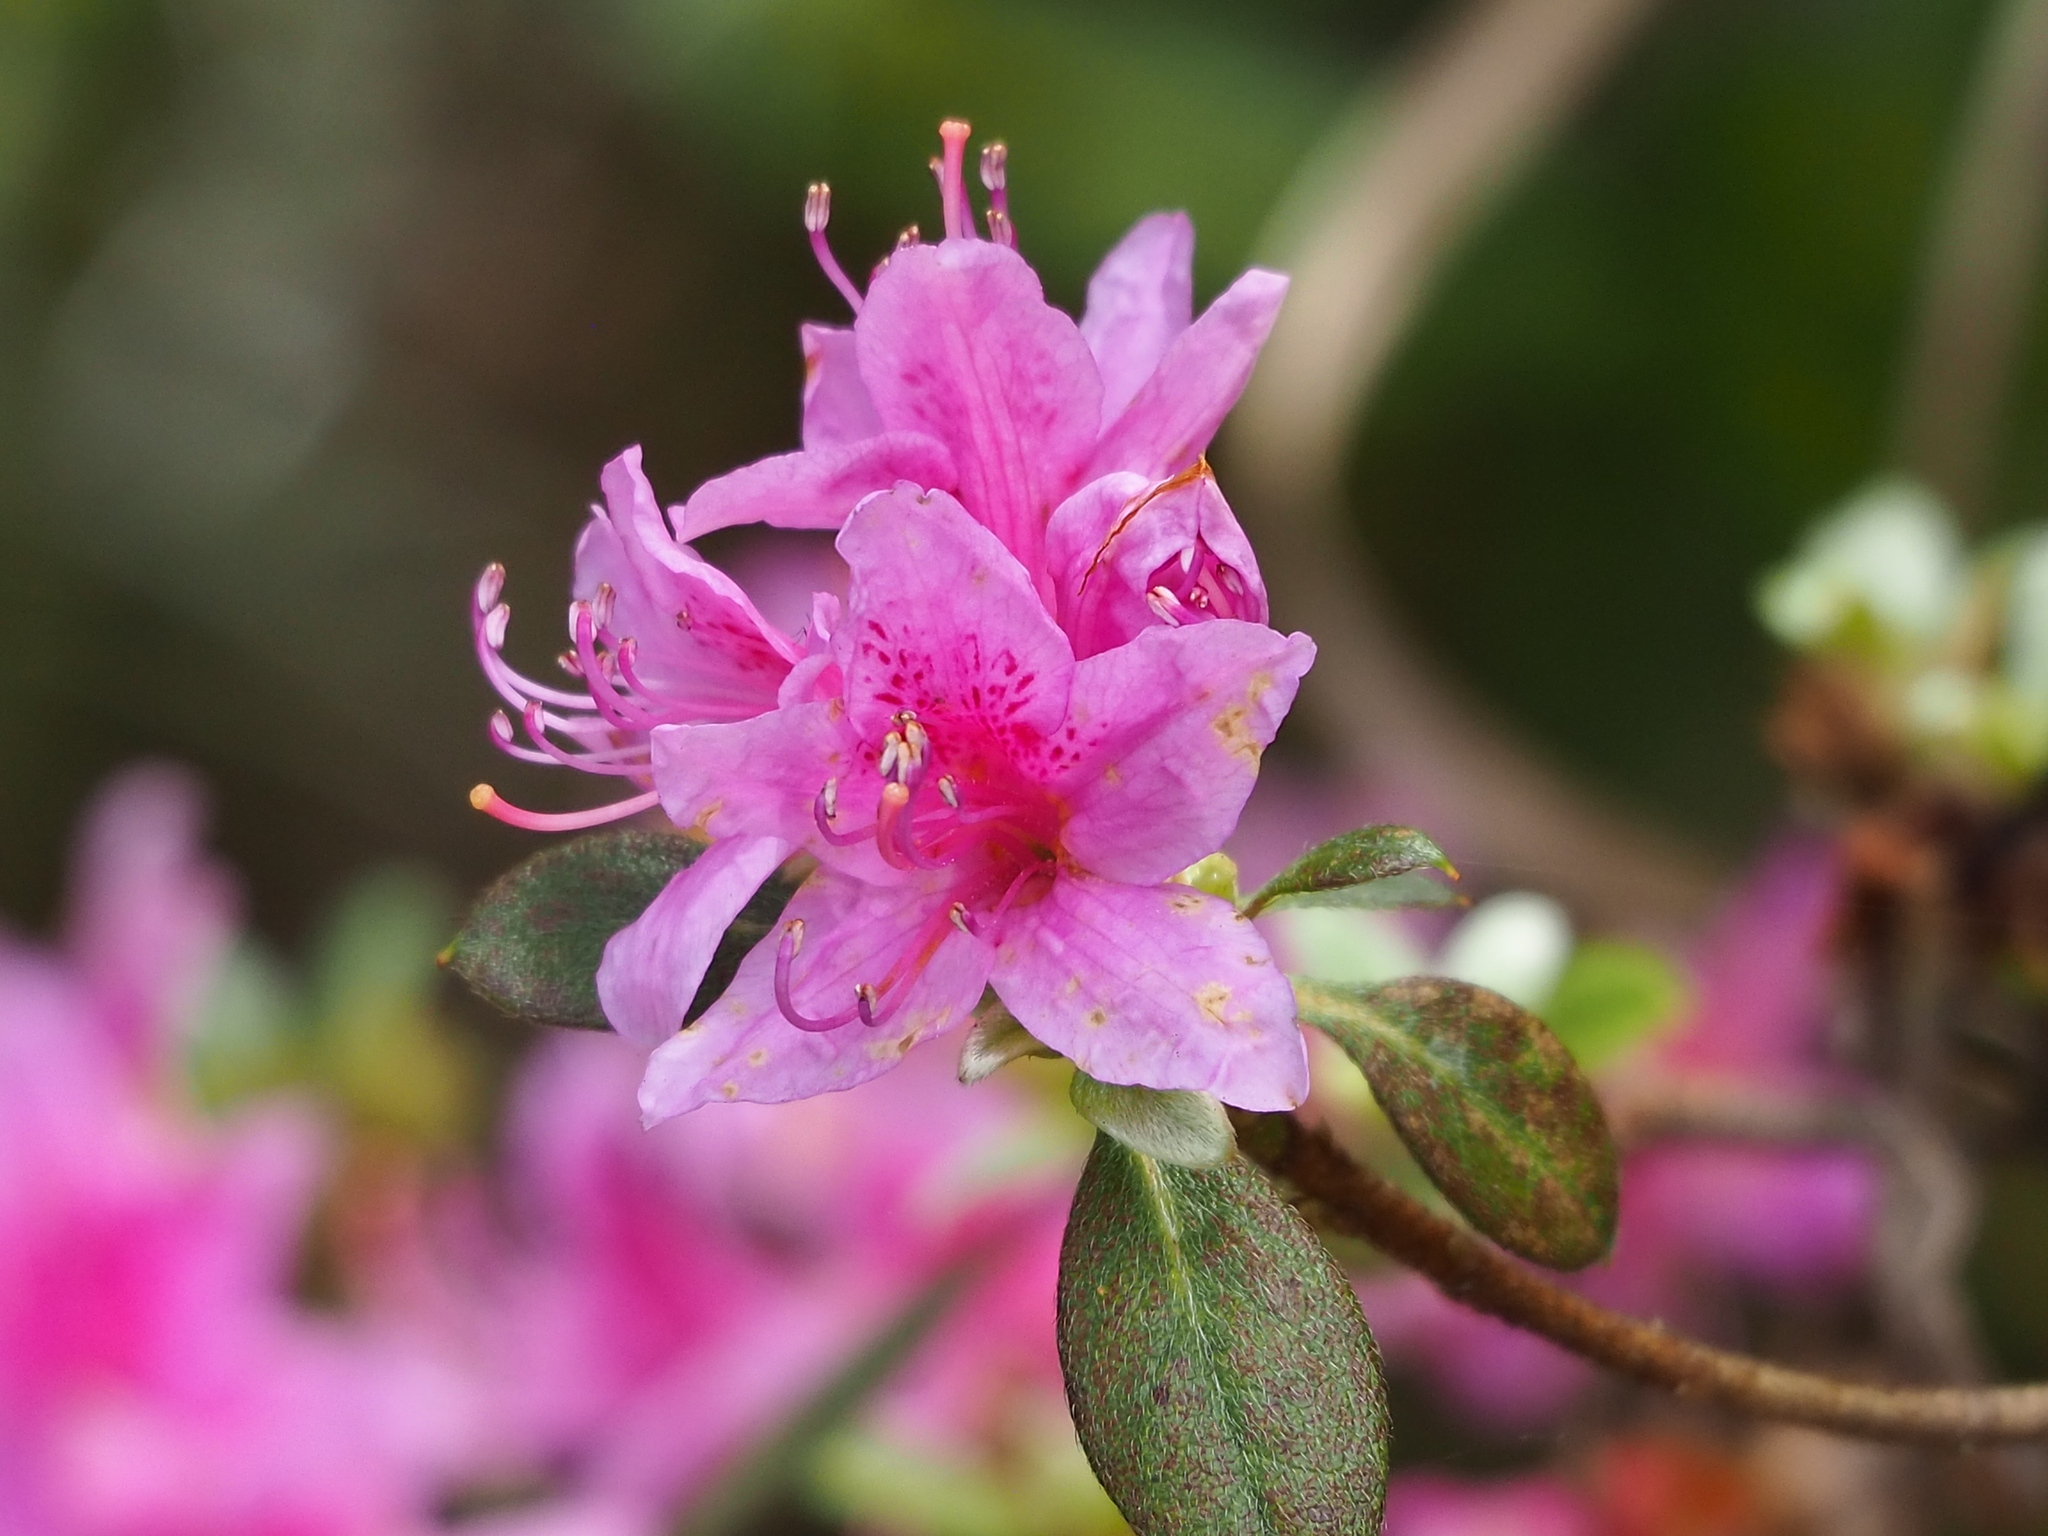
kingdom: Plantae
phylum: Tracheophyta
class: Magnoliopsida
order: Ericales
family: Ericaceae
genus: Rhododendron
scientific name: Rhododendron rubropilosum
